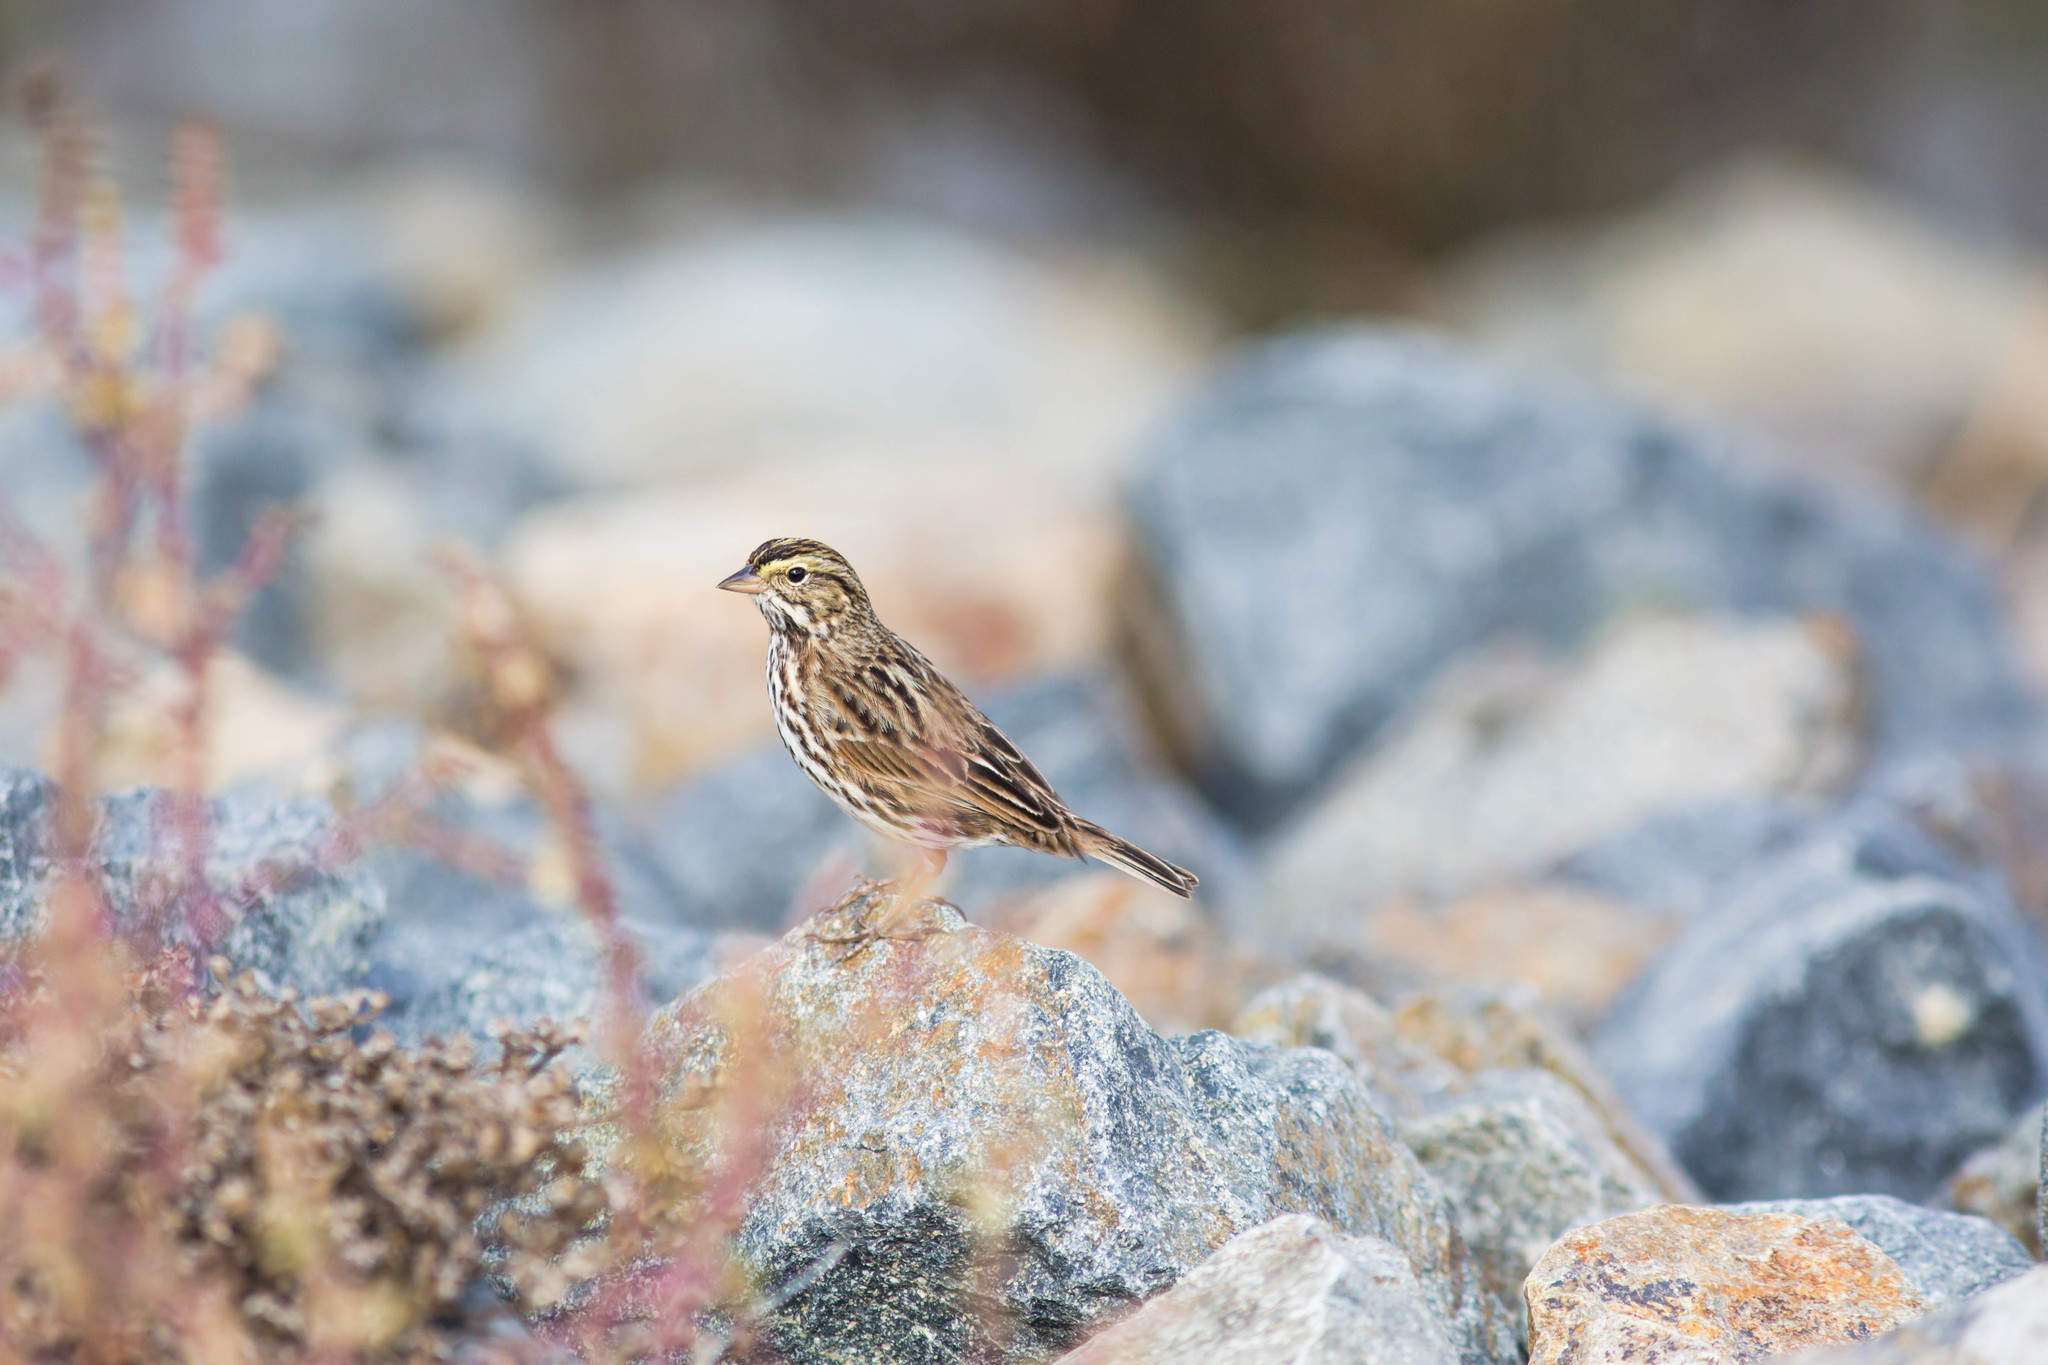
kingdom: Animalia
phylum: Chordata
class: Aves
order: Passeriformes
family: Passerellidae
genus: Passerculus
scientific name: Passerculus sandwichensis
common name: Savannah sparrow
